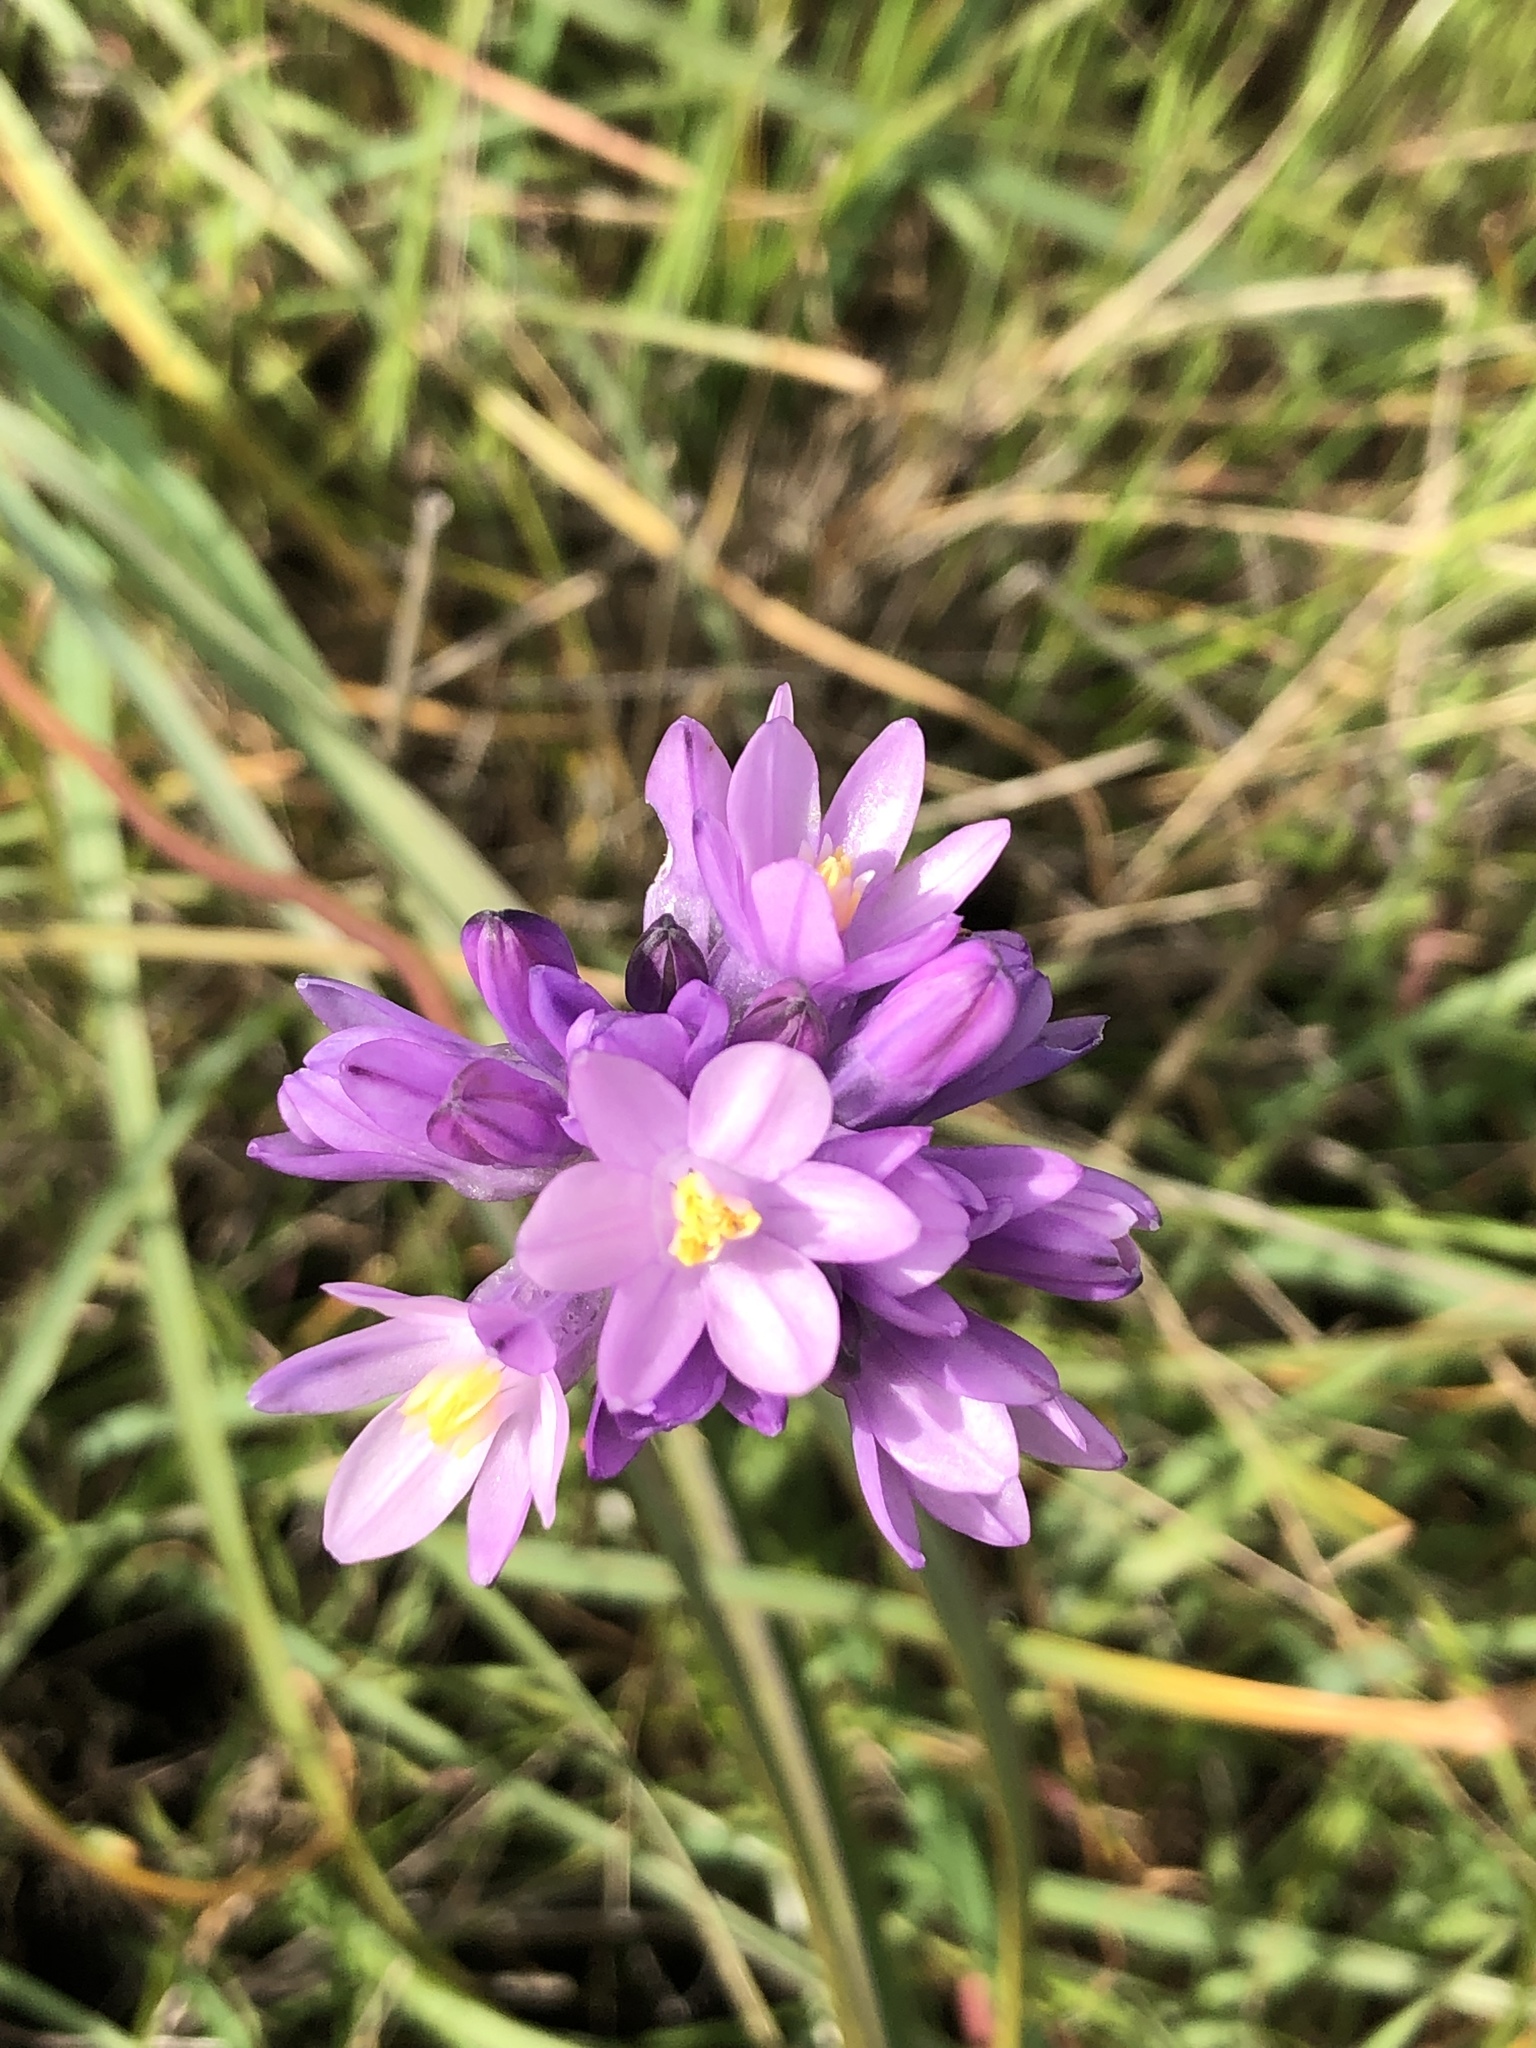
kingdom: Plantae
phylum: Tracheophyta
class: Liliopsida
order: Asparagales
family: Asparagaceae
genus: Dipterostemon
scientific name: Dipterostemon capitatus
